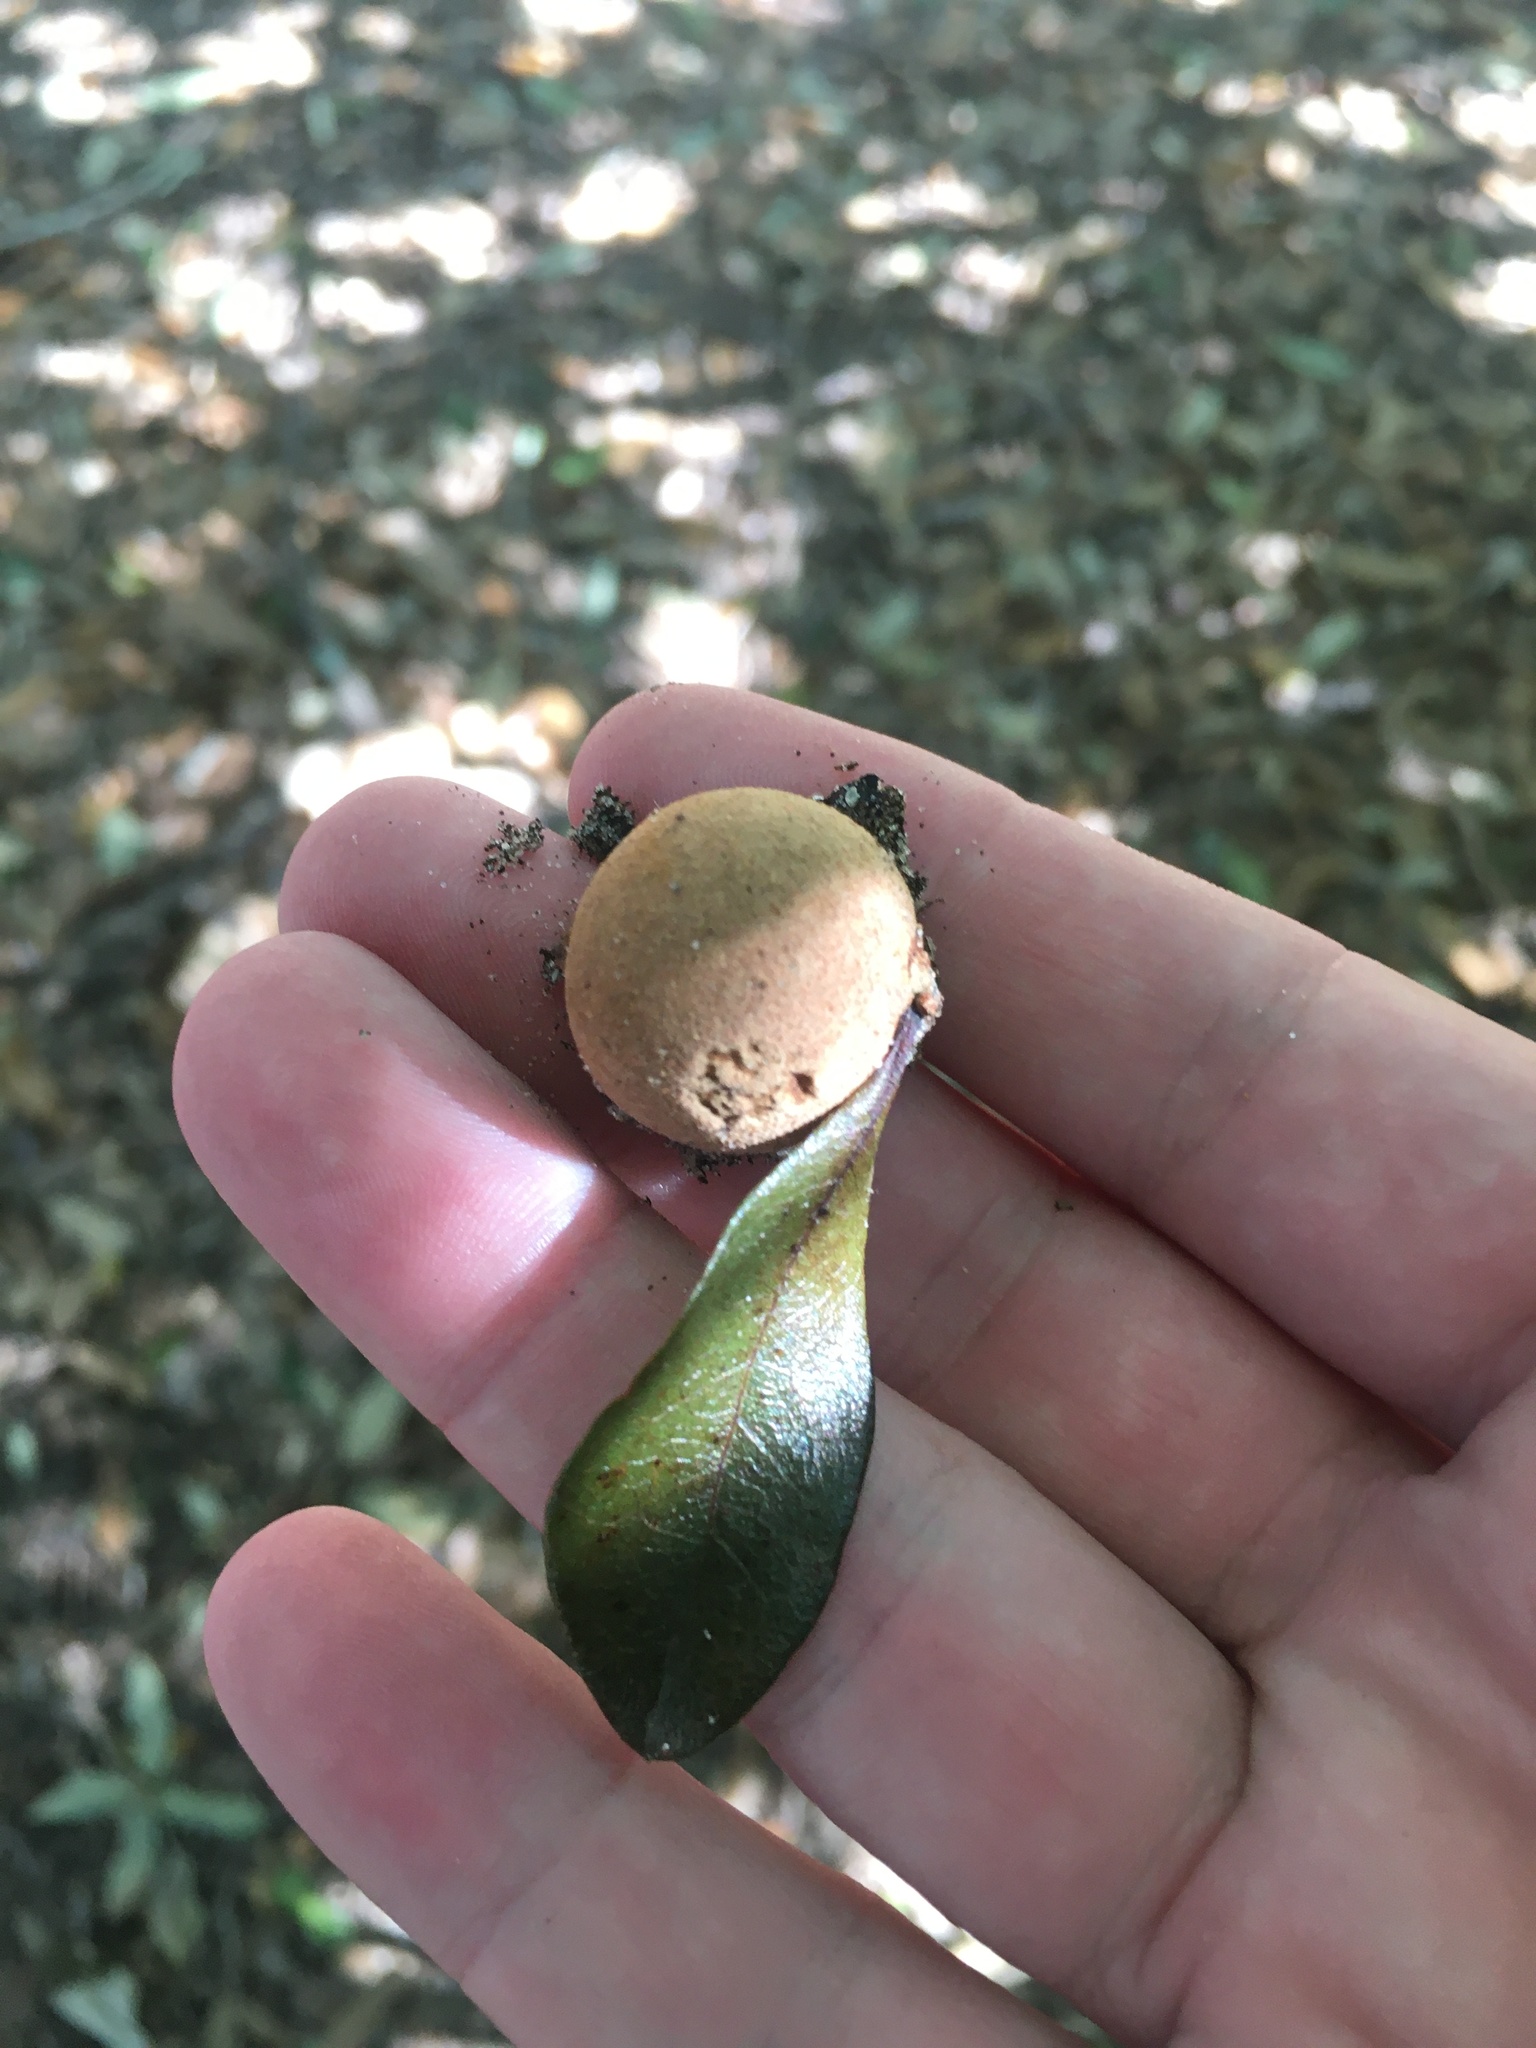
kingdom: Animalia
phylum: Arthropoda
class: Insecta
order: Hymenoptera
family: Cynipidae
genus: Disholcaspis
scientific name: Disholcaspis
